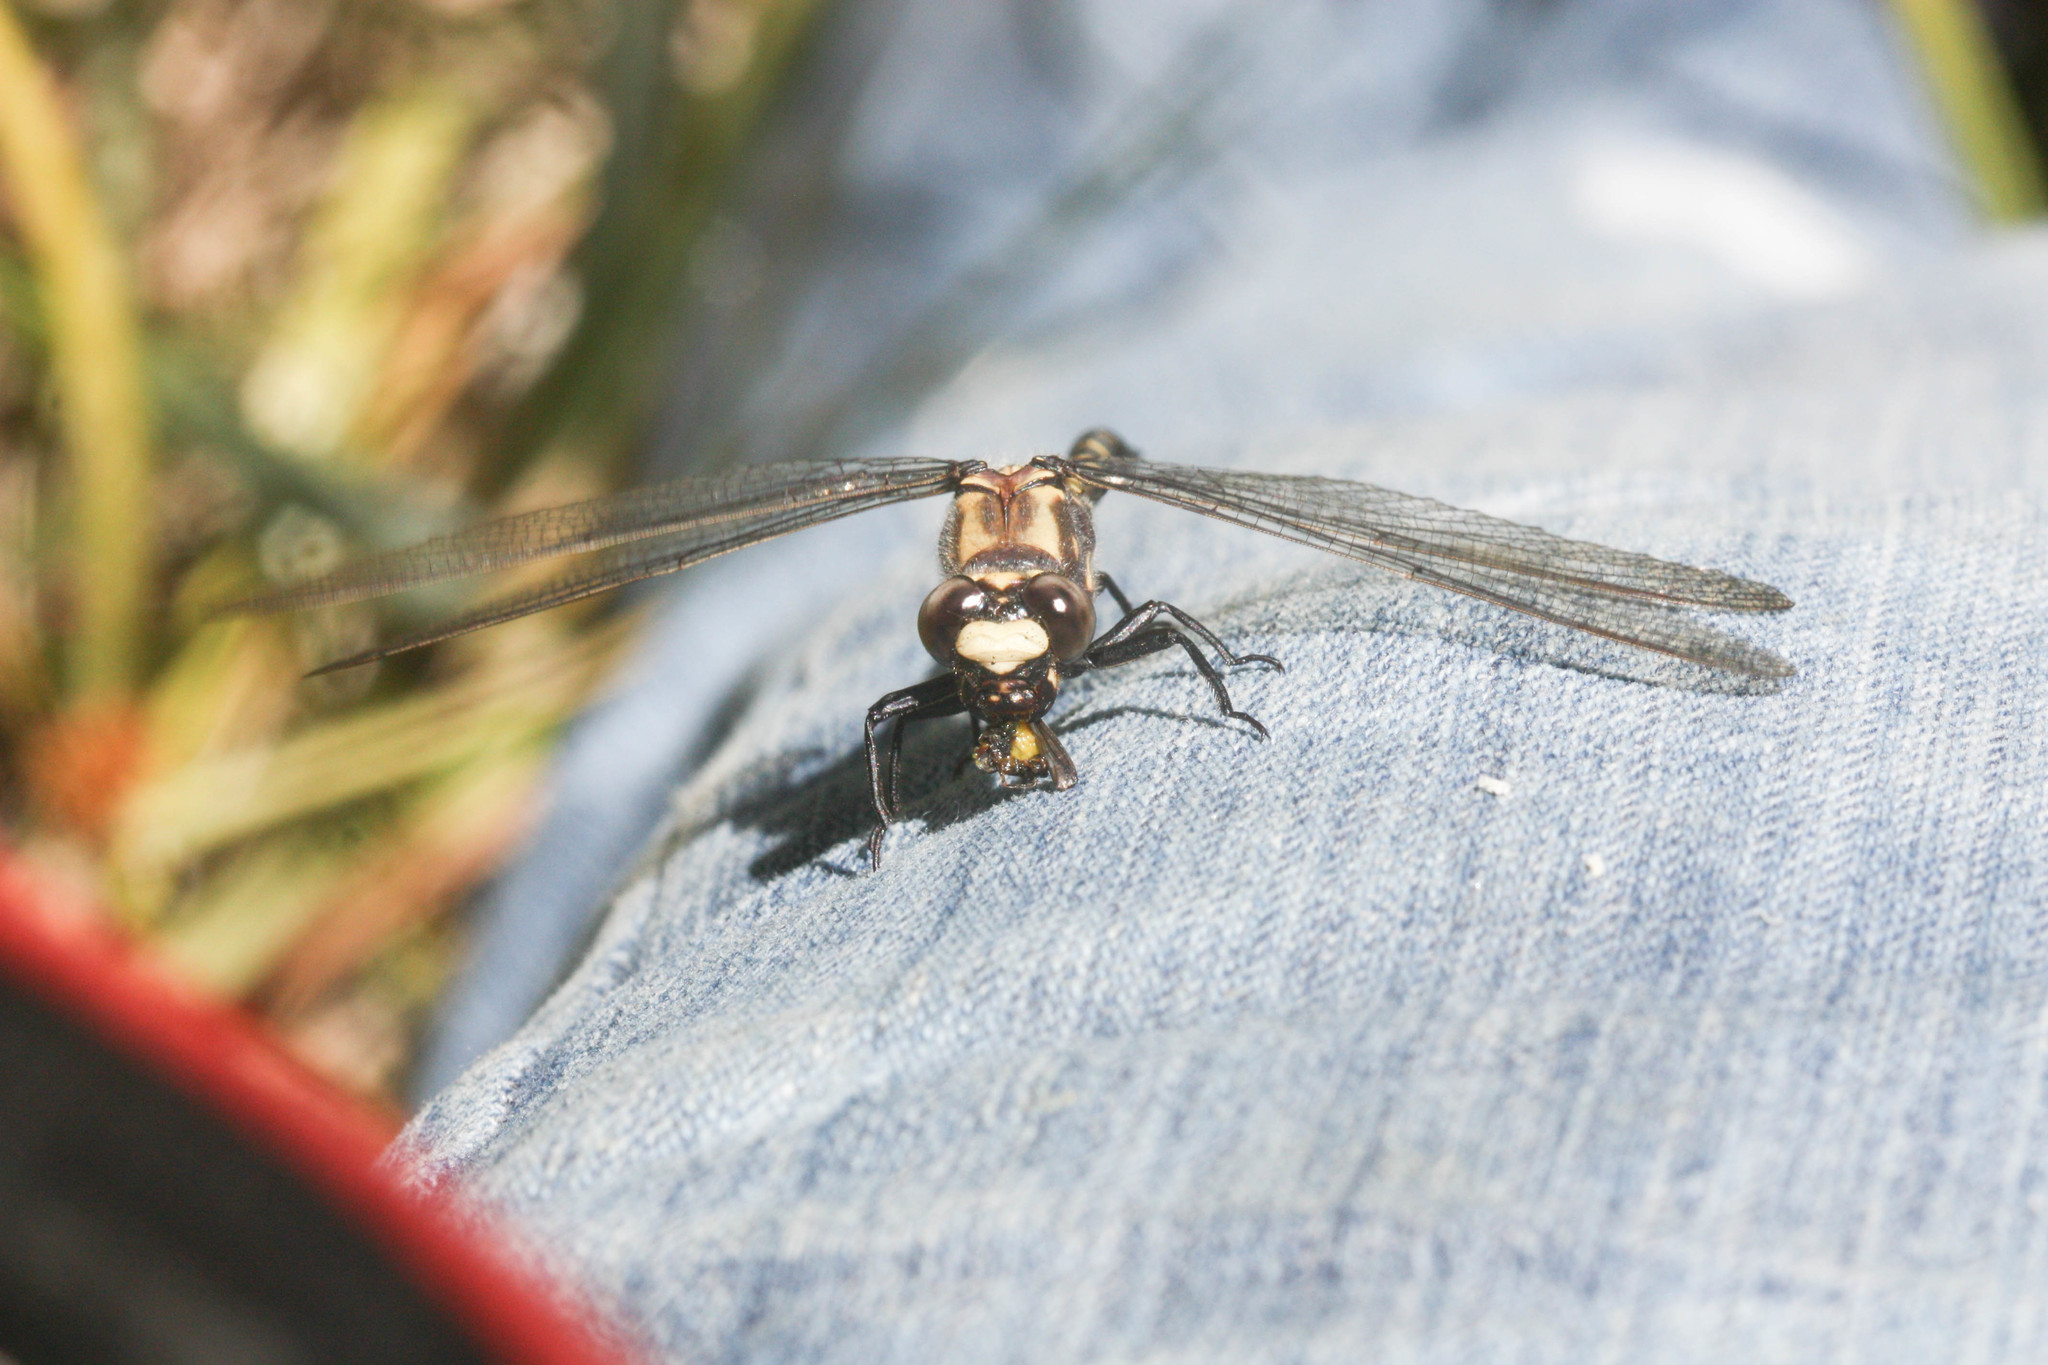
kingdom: Animalia
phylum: Arthropoda
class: Insecta
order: Odonata
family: Petaluridae
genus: Tanypteryx
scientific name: Tanypteryx hageni
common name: Black petaltail
